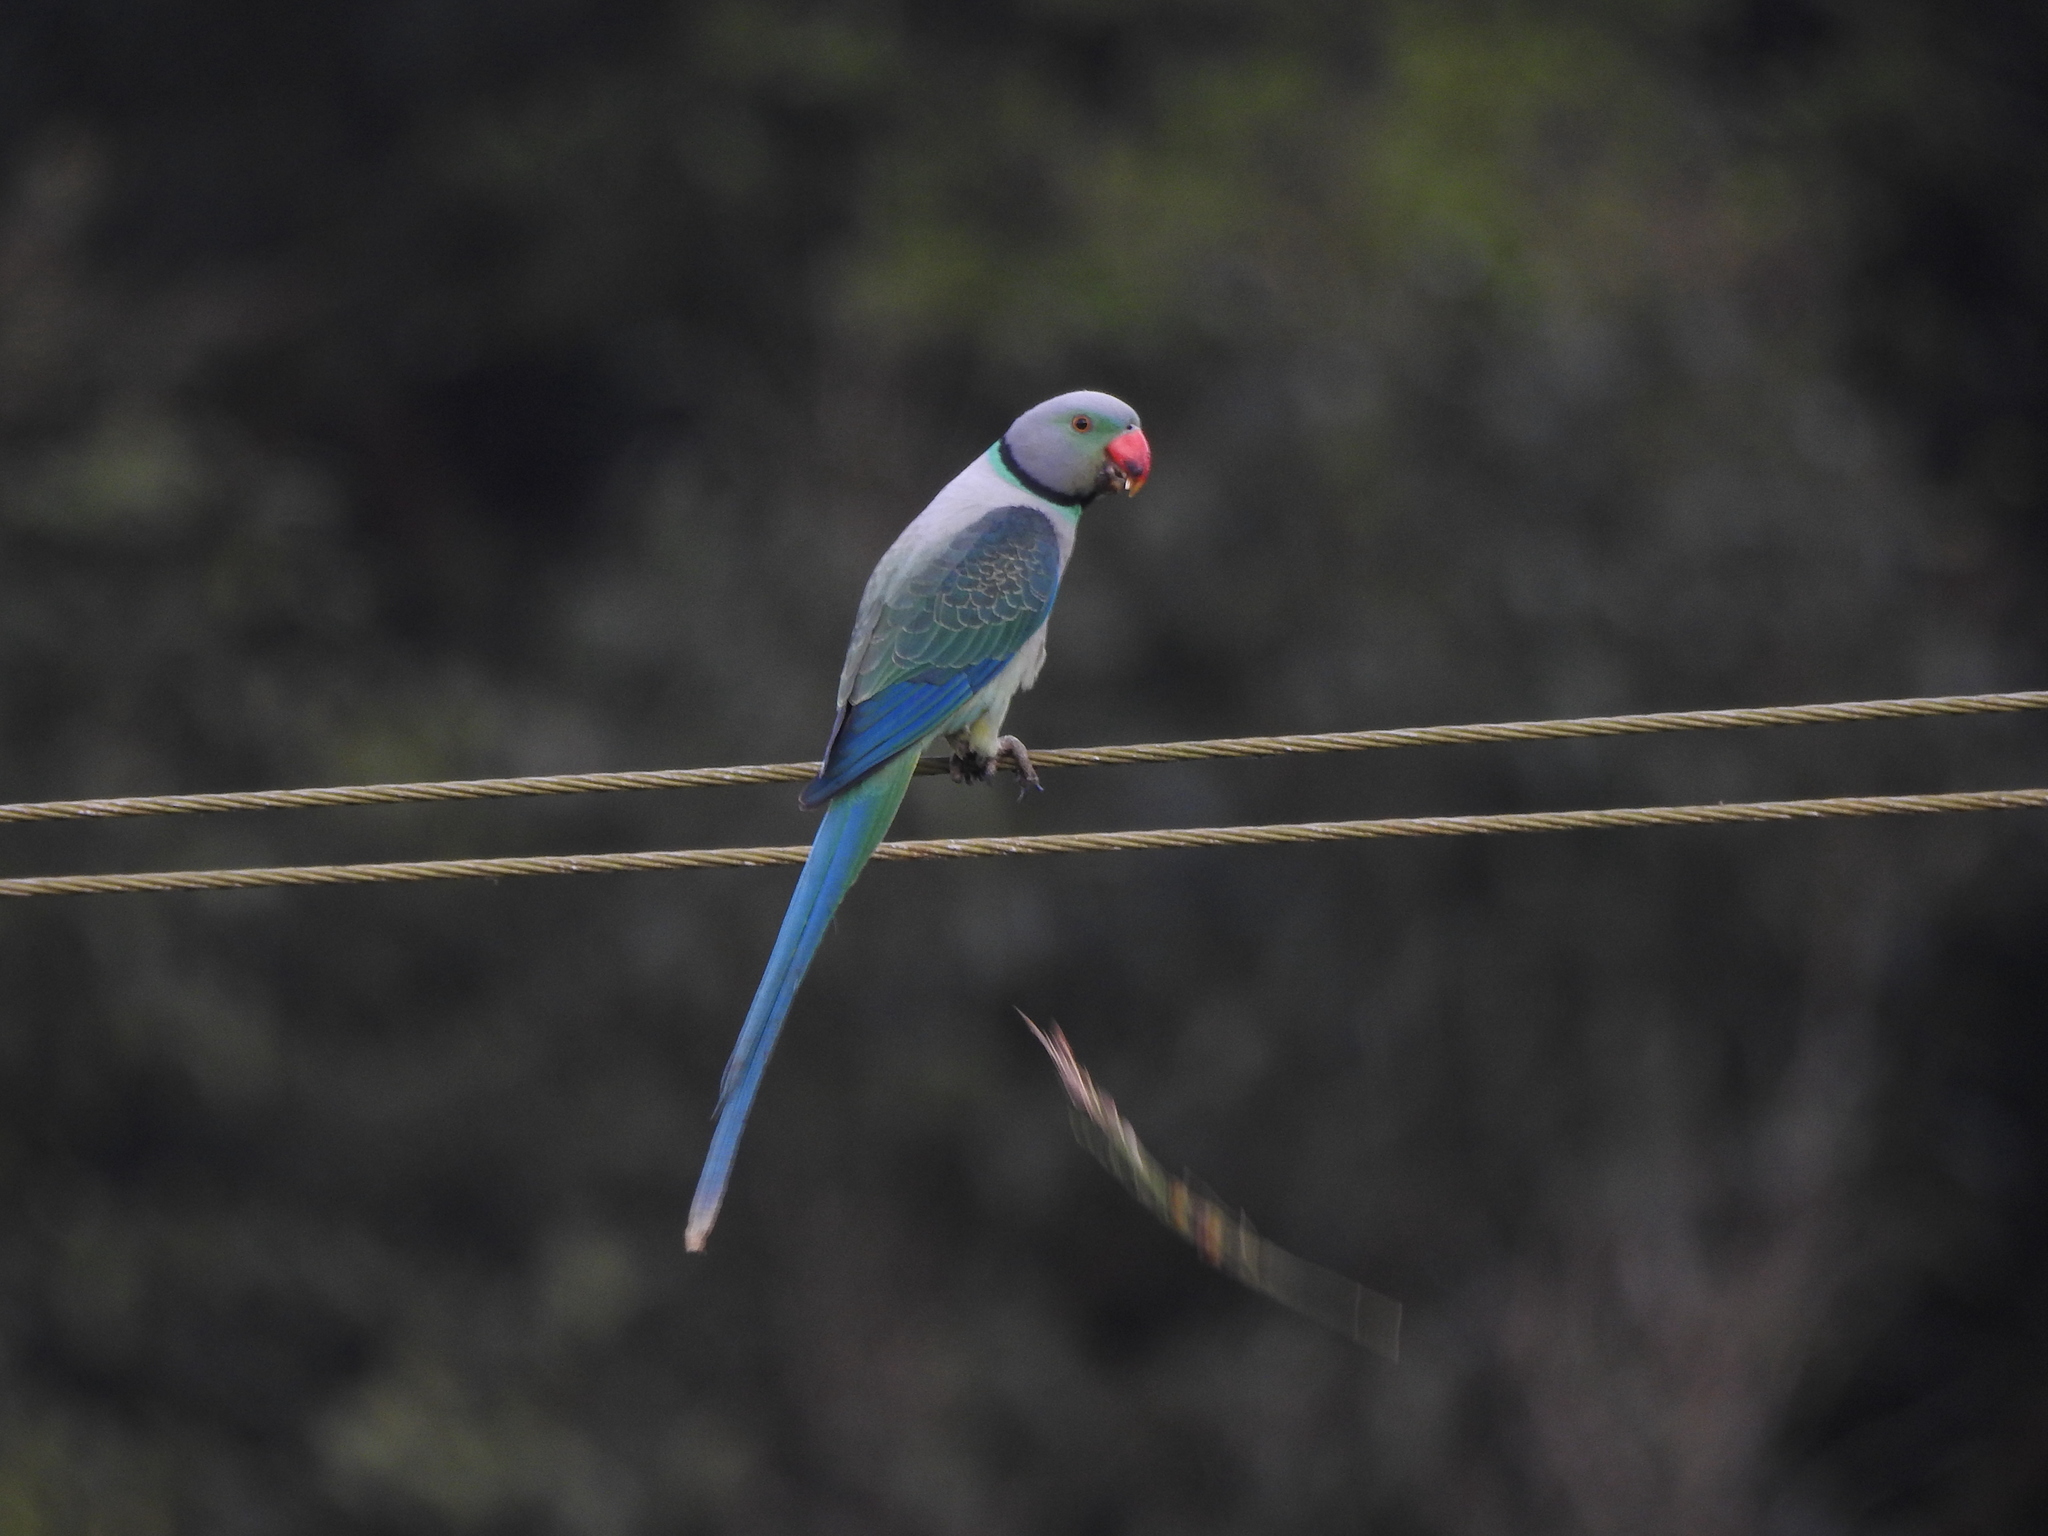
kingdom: Animalia
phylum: Chordata
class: Aves
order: Psittaciformes
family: Psittacidae
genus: Psittacula
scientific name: Psittacula columboides
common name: Blue-winged parakeet
